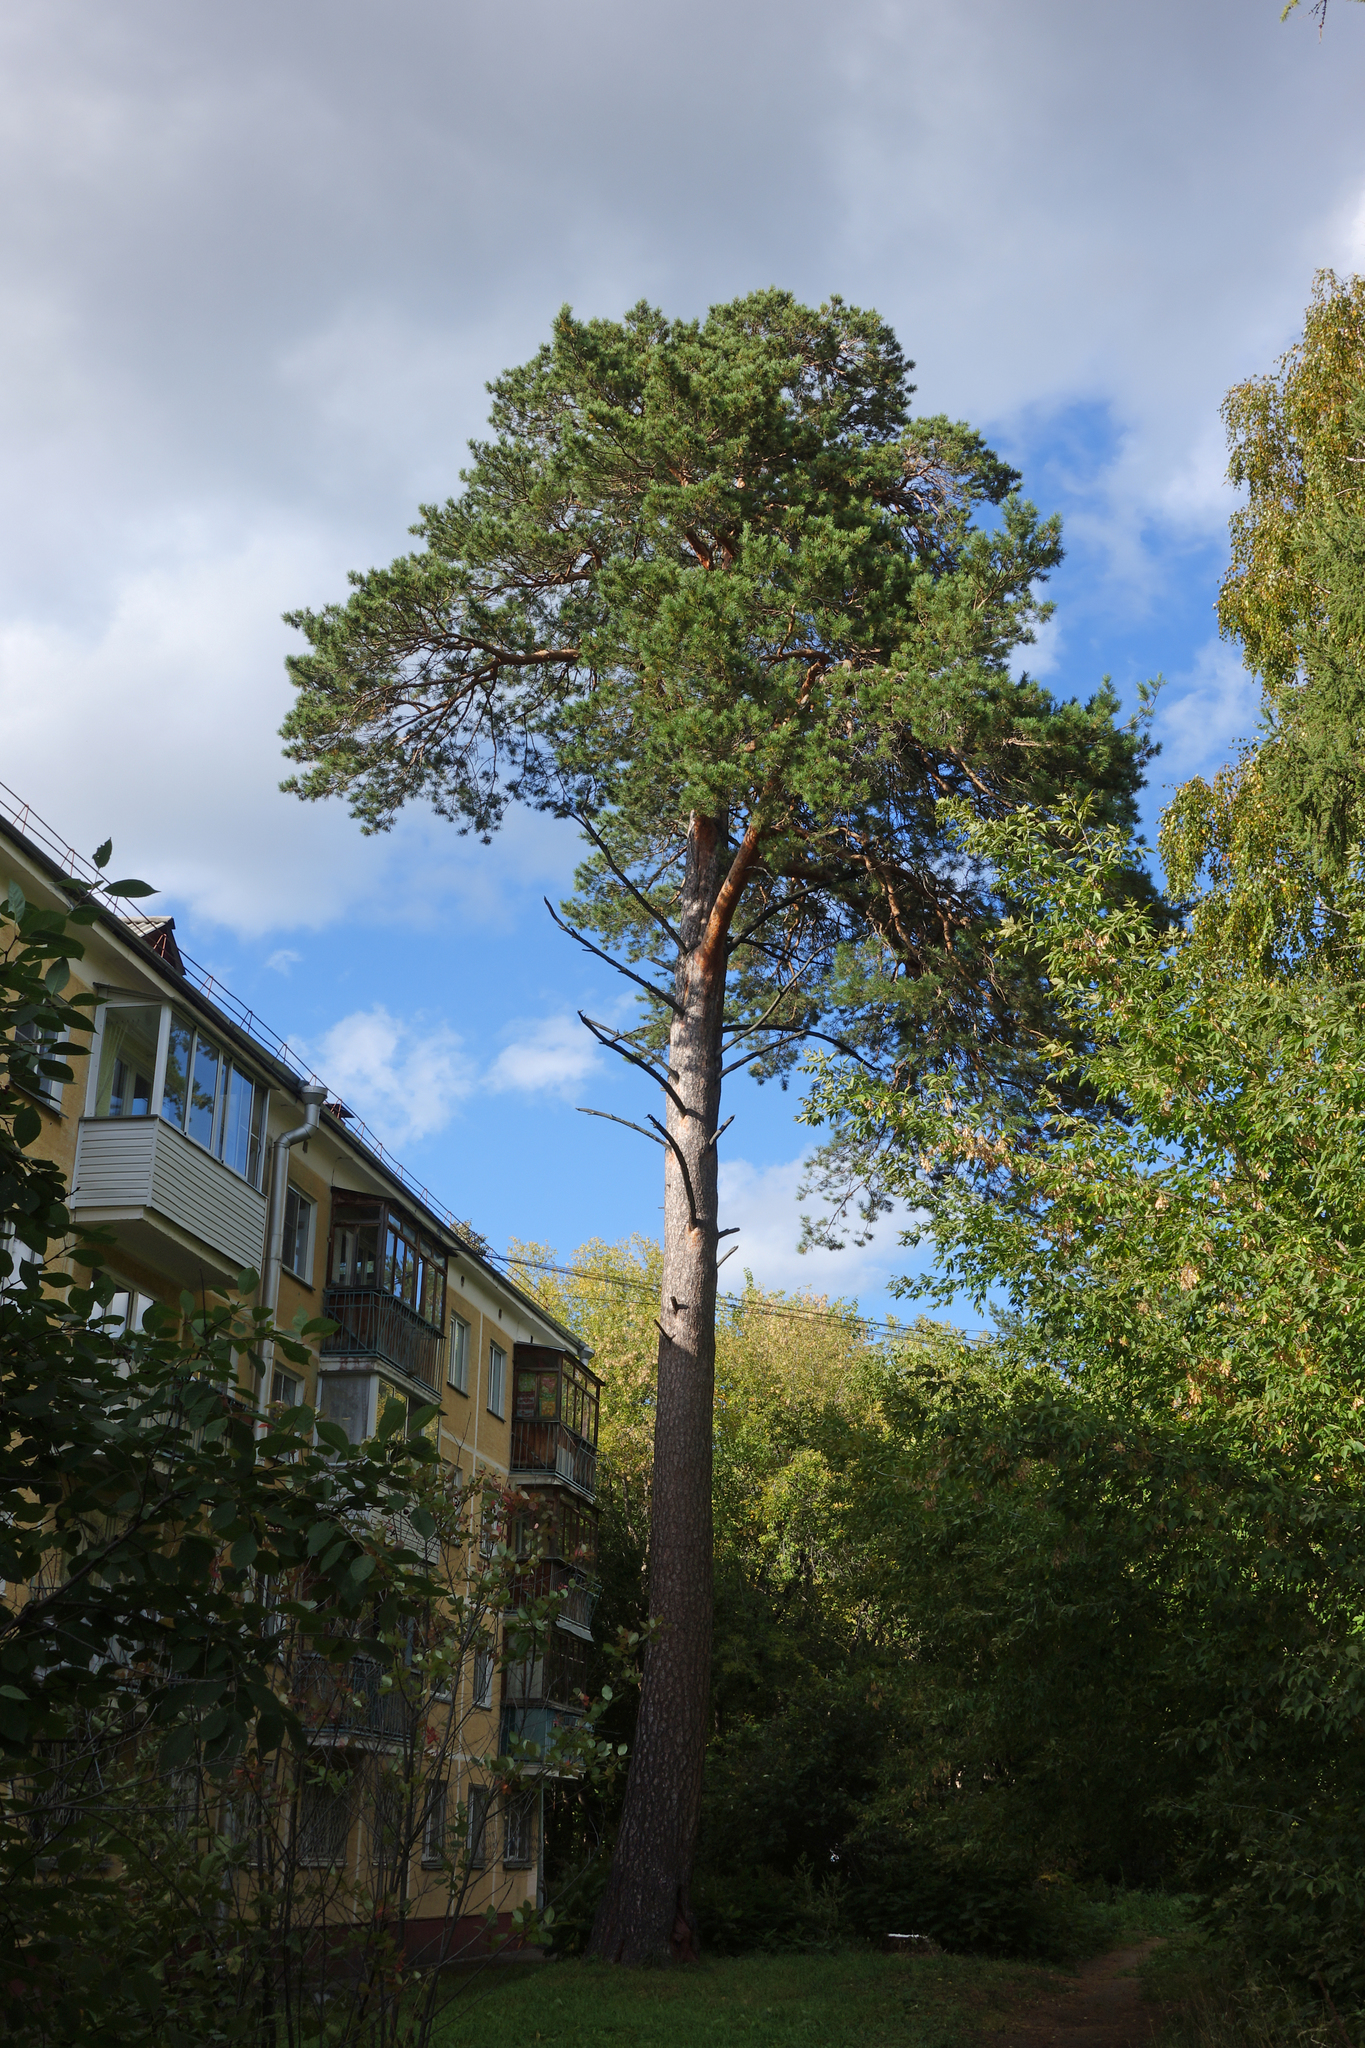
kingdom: Plantae
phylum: Tracheophyta
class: Pinopsida
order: Pinales
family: Pinaceae
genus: Pinus
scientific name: Pinus sylvestris
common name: Scots pine
